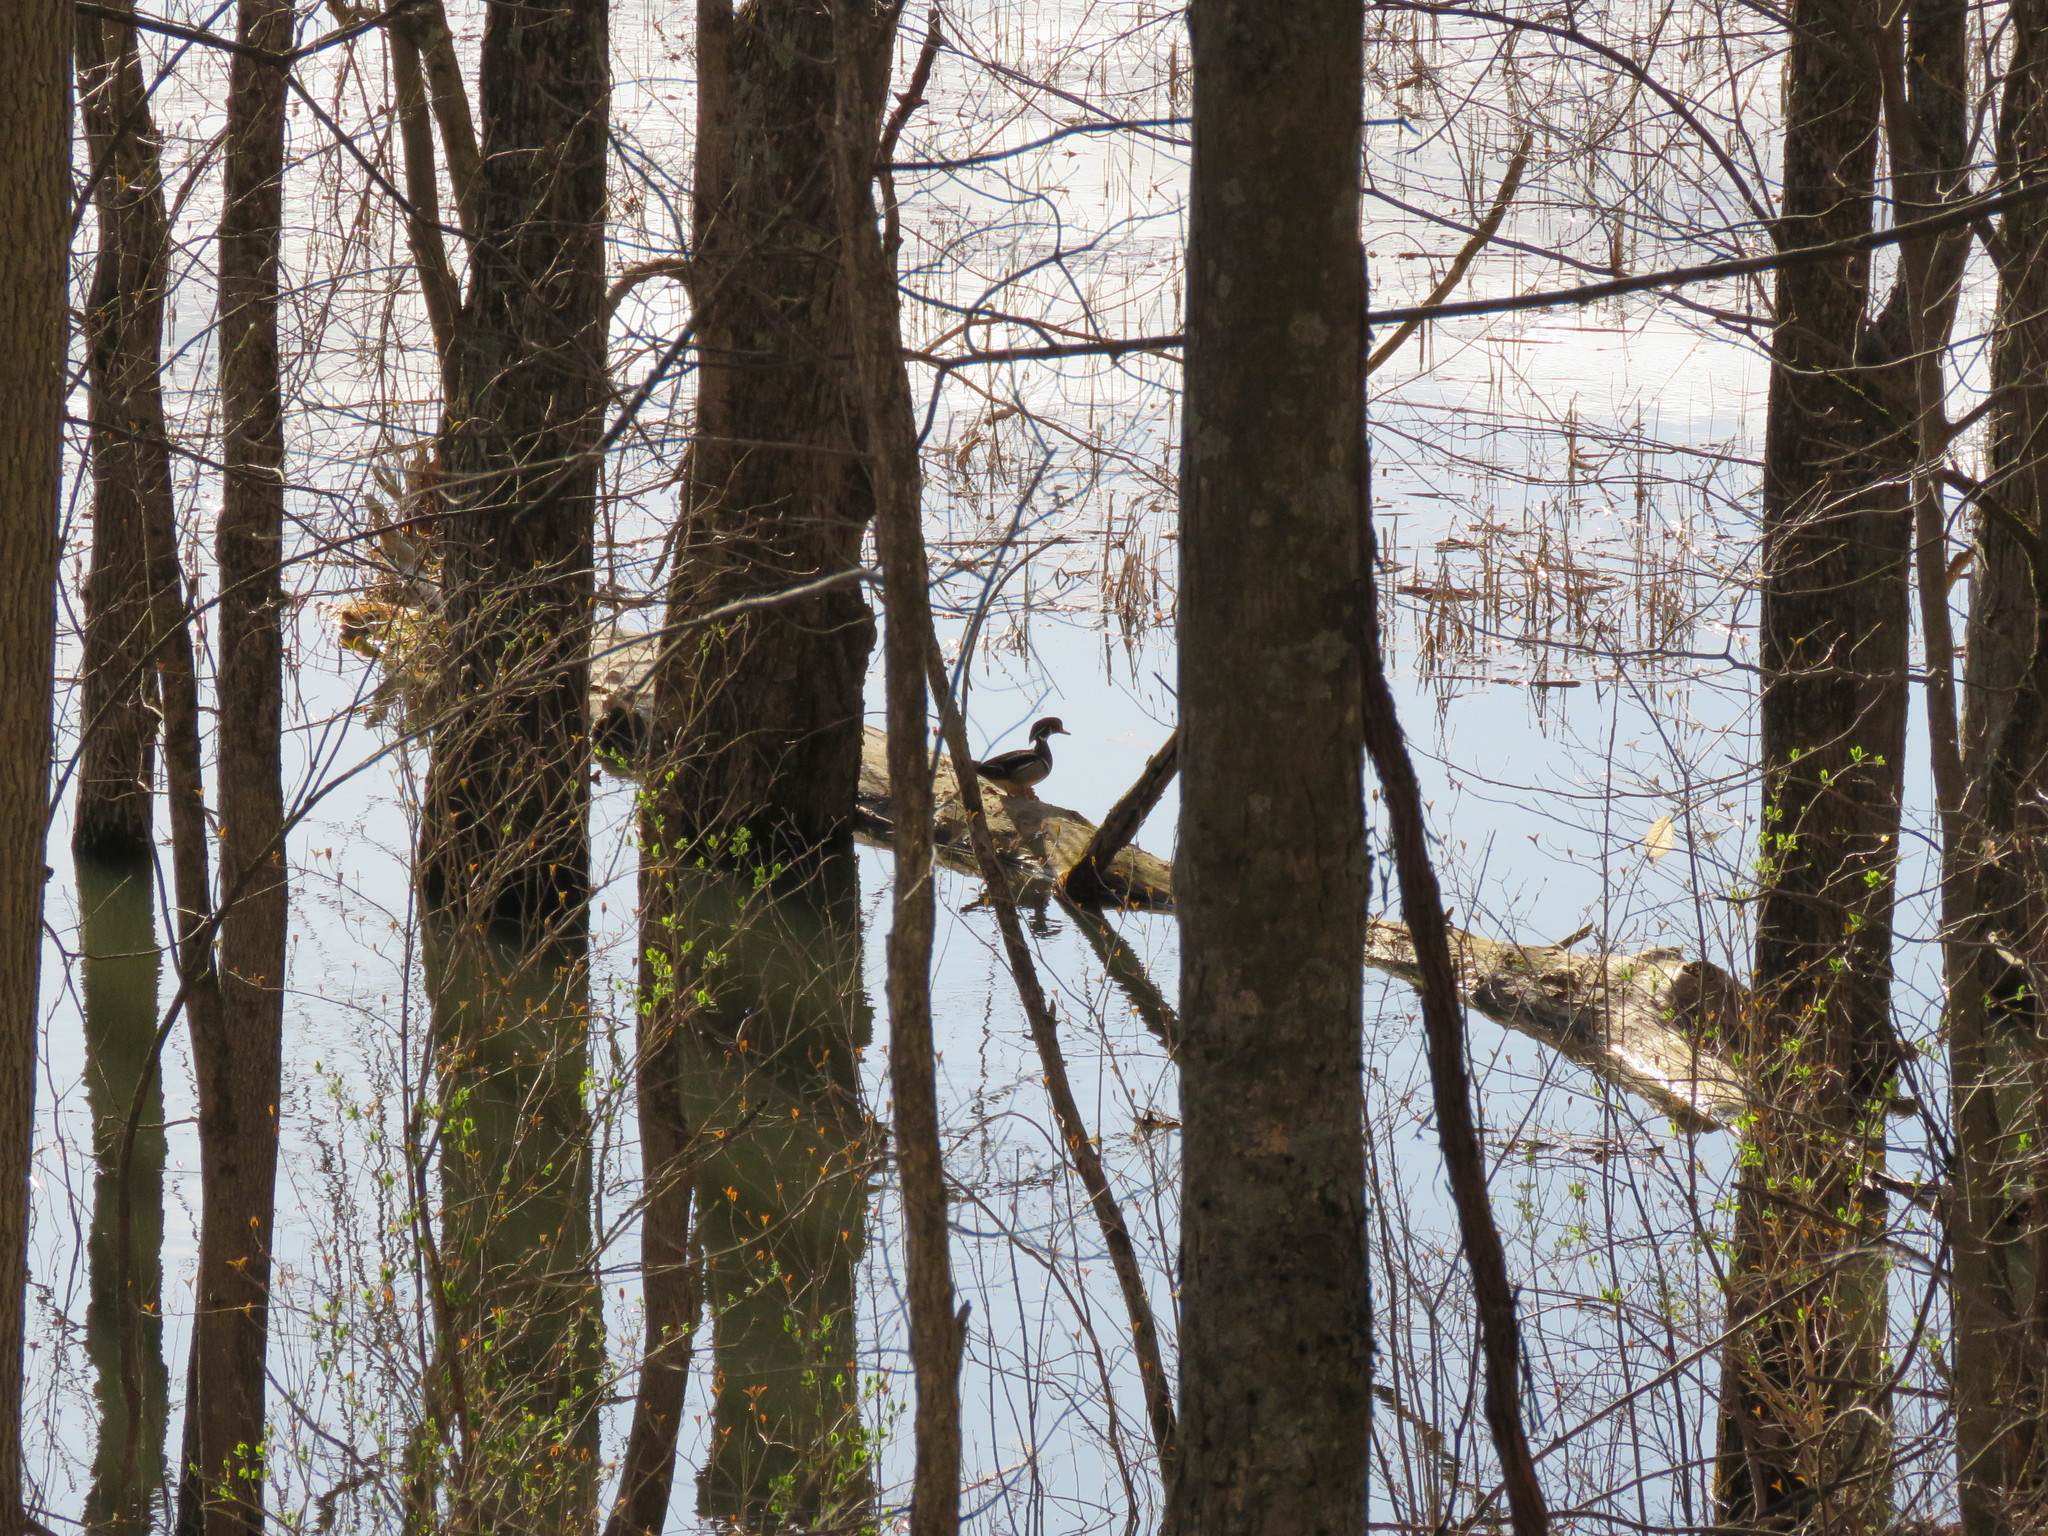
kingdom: Animalia
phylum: Chordata
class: Aves
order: Anseriformes
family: Anatidae
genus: Aix
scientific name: Aix sponsa
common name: Wood duck
